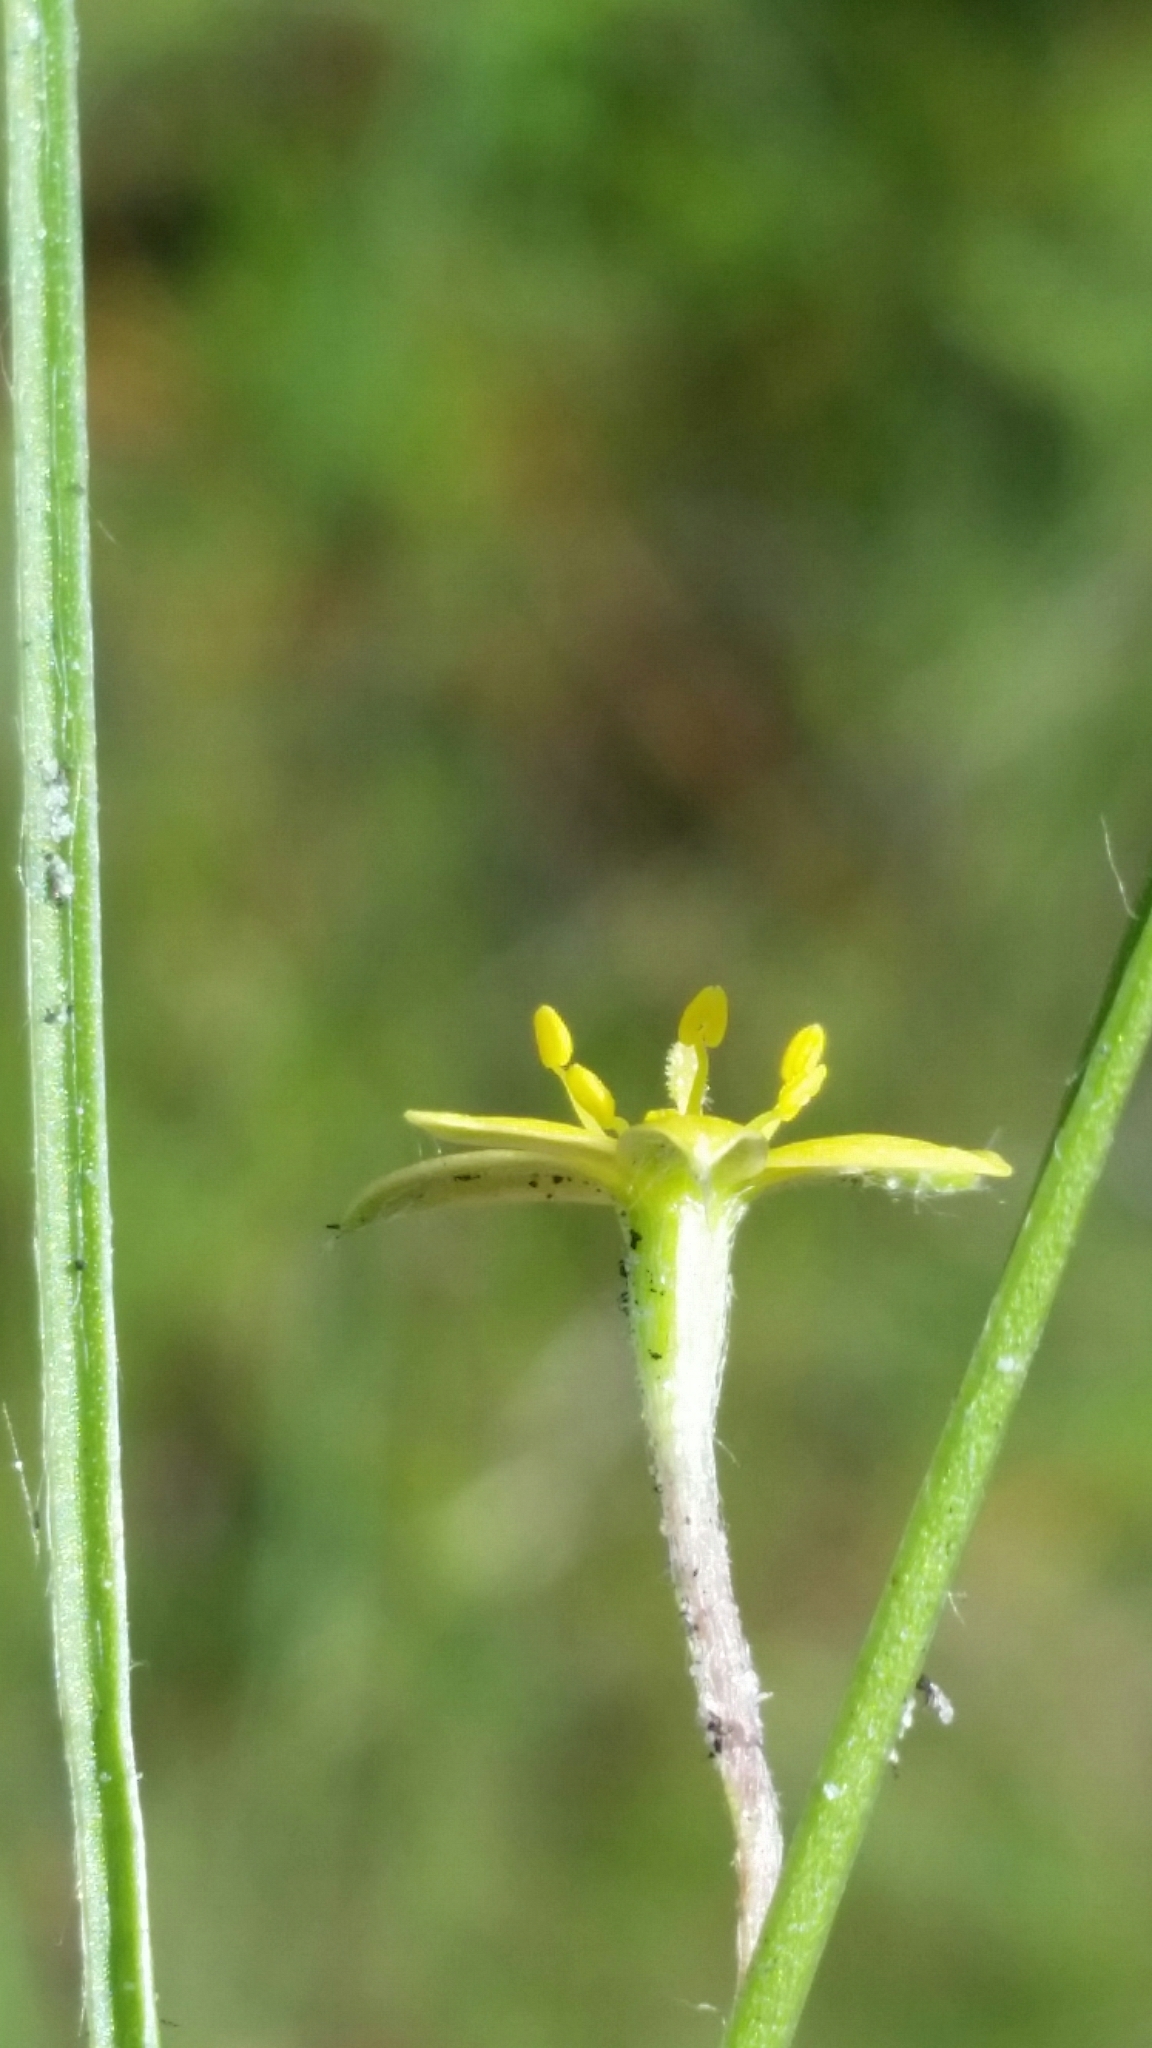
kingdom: Plantae
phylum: Tracheophyta
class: Liliopsida
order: Asparagales
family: Hypoxidaceae
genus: Hypoxis
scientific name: Hypoxis wrightii
